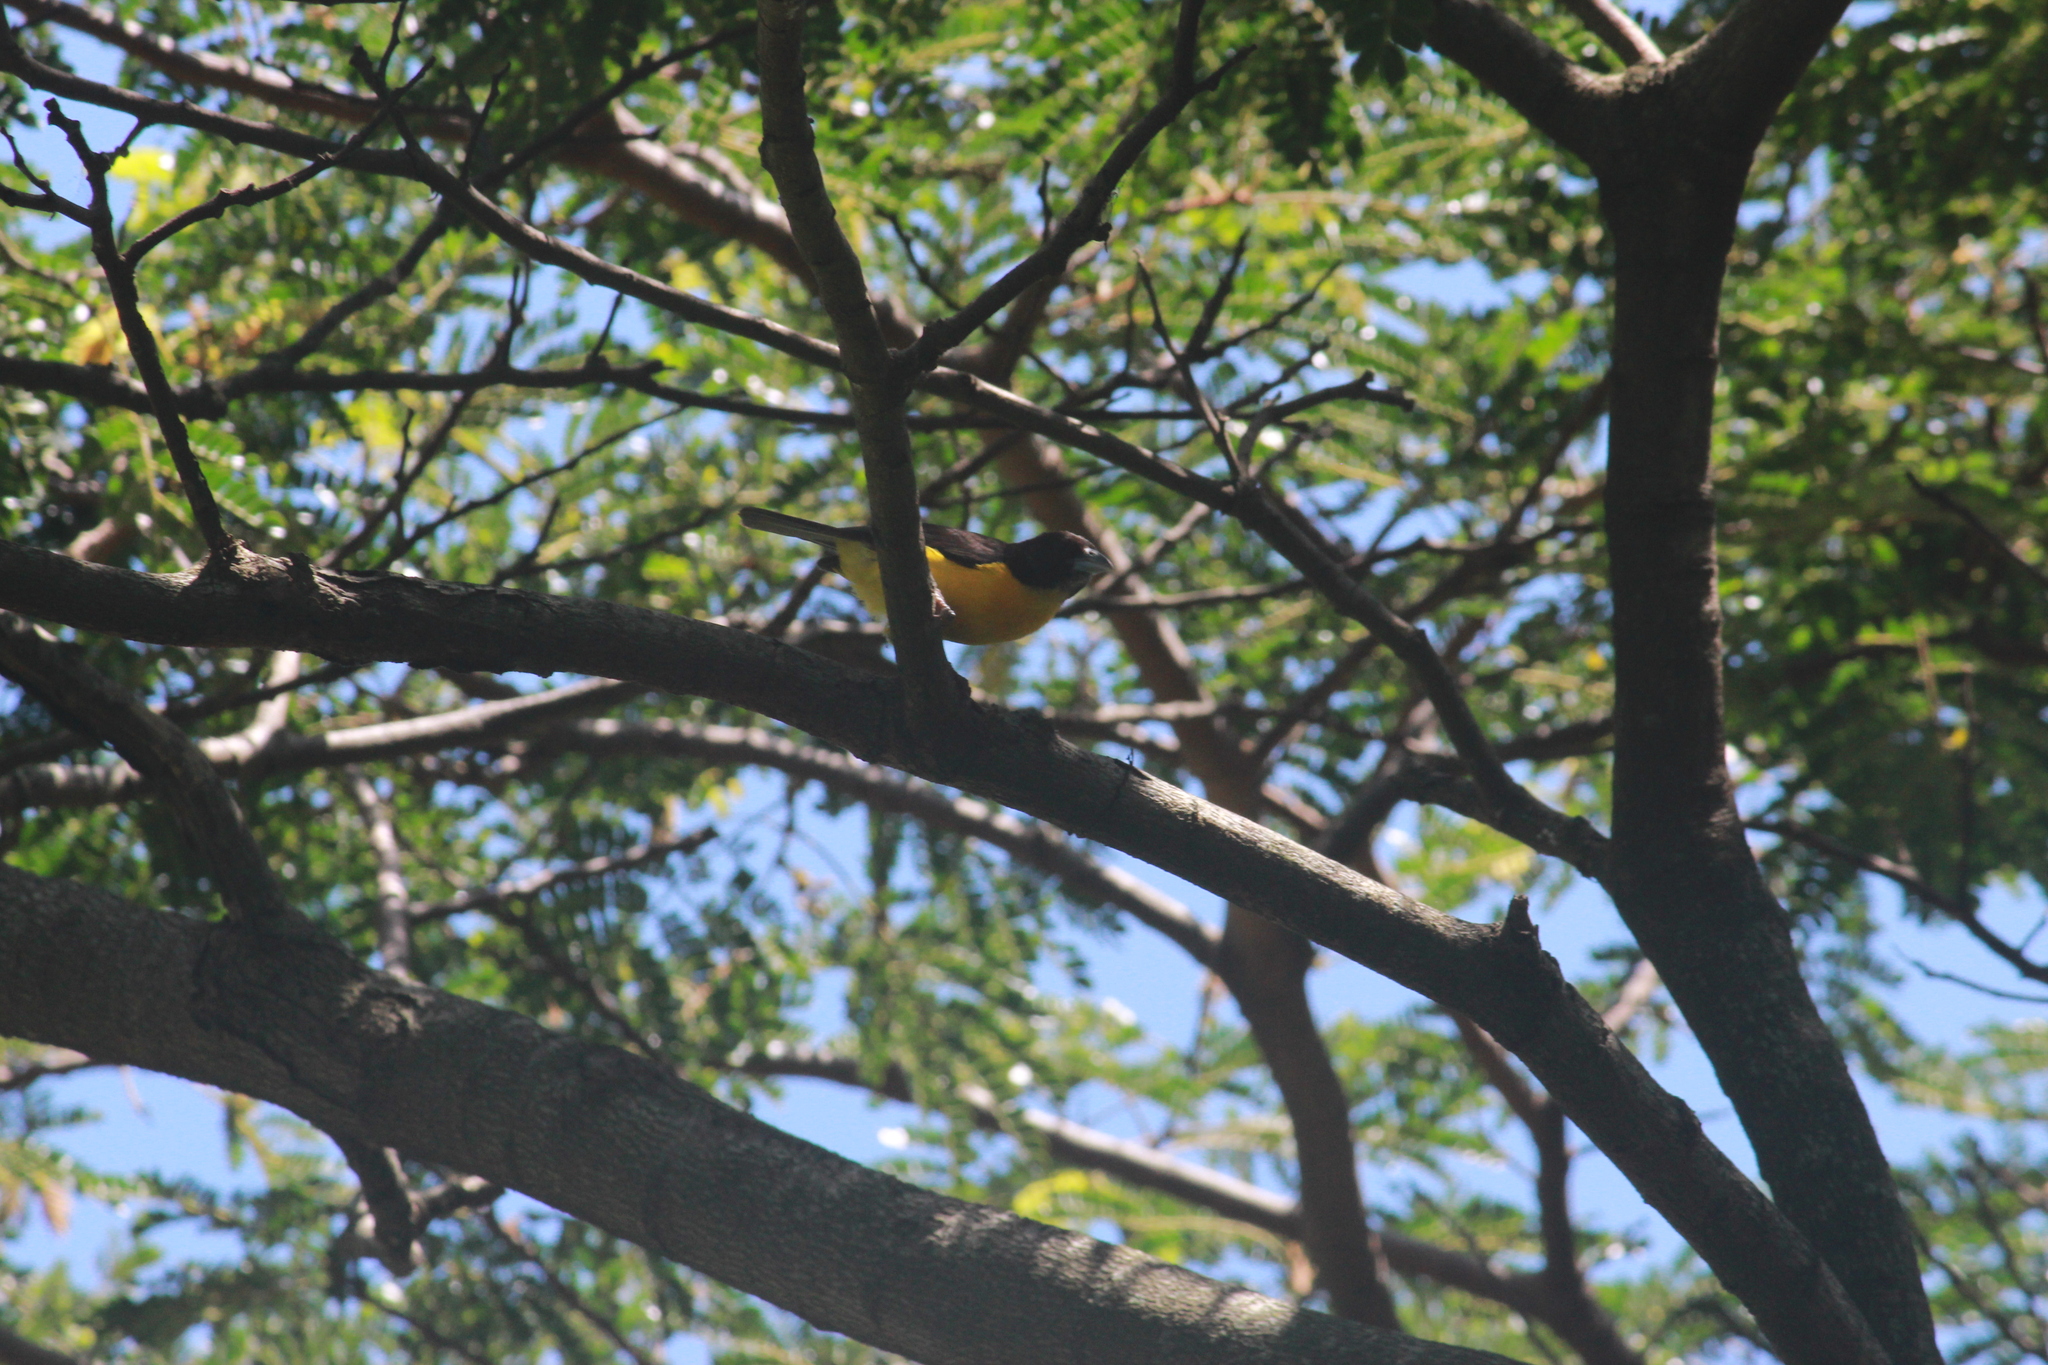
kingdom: Animalia
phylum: Chordata
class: Aves
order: Passeriformes
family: Ploceidae
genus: Ploceus
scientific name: Ploceus bicolor
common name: Dark-backed weaver
